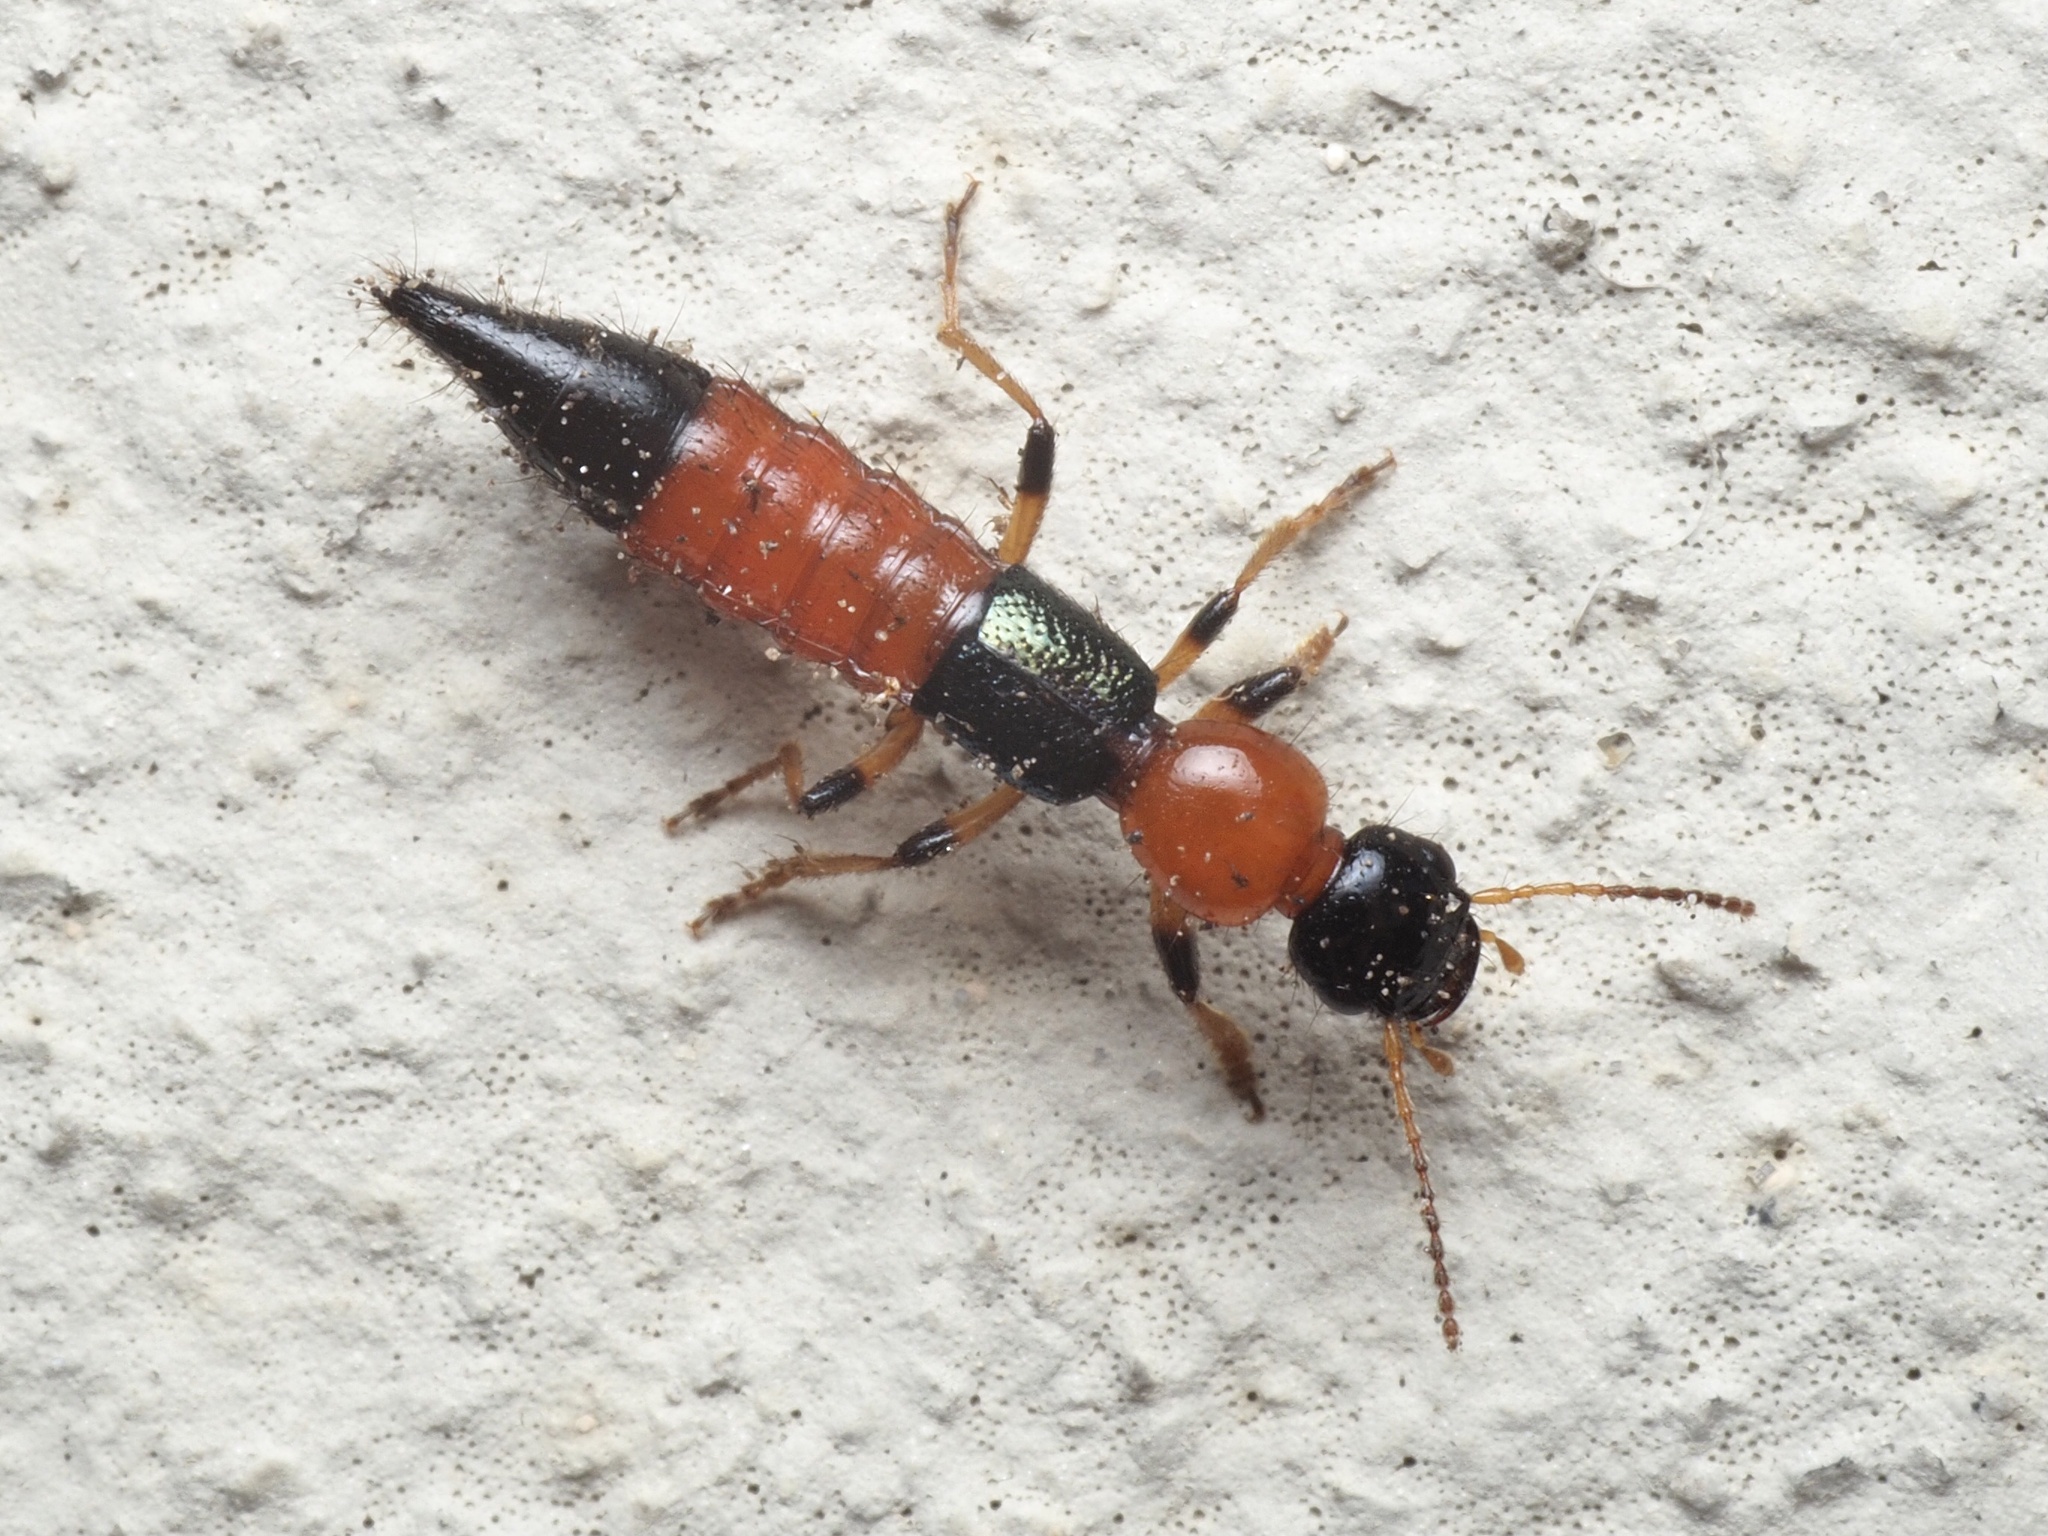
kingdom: Animalia
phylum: Arthropoda
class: Insecta
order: Coleoptera
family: Staphylinidae
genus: Paederus
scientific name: Paederus littoralis
